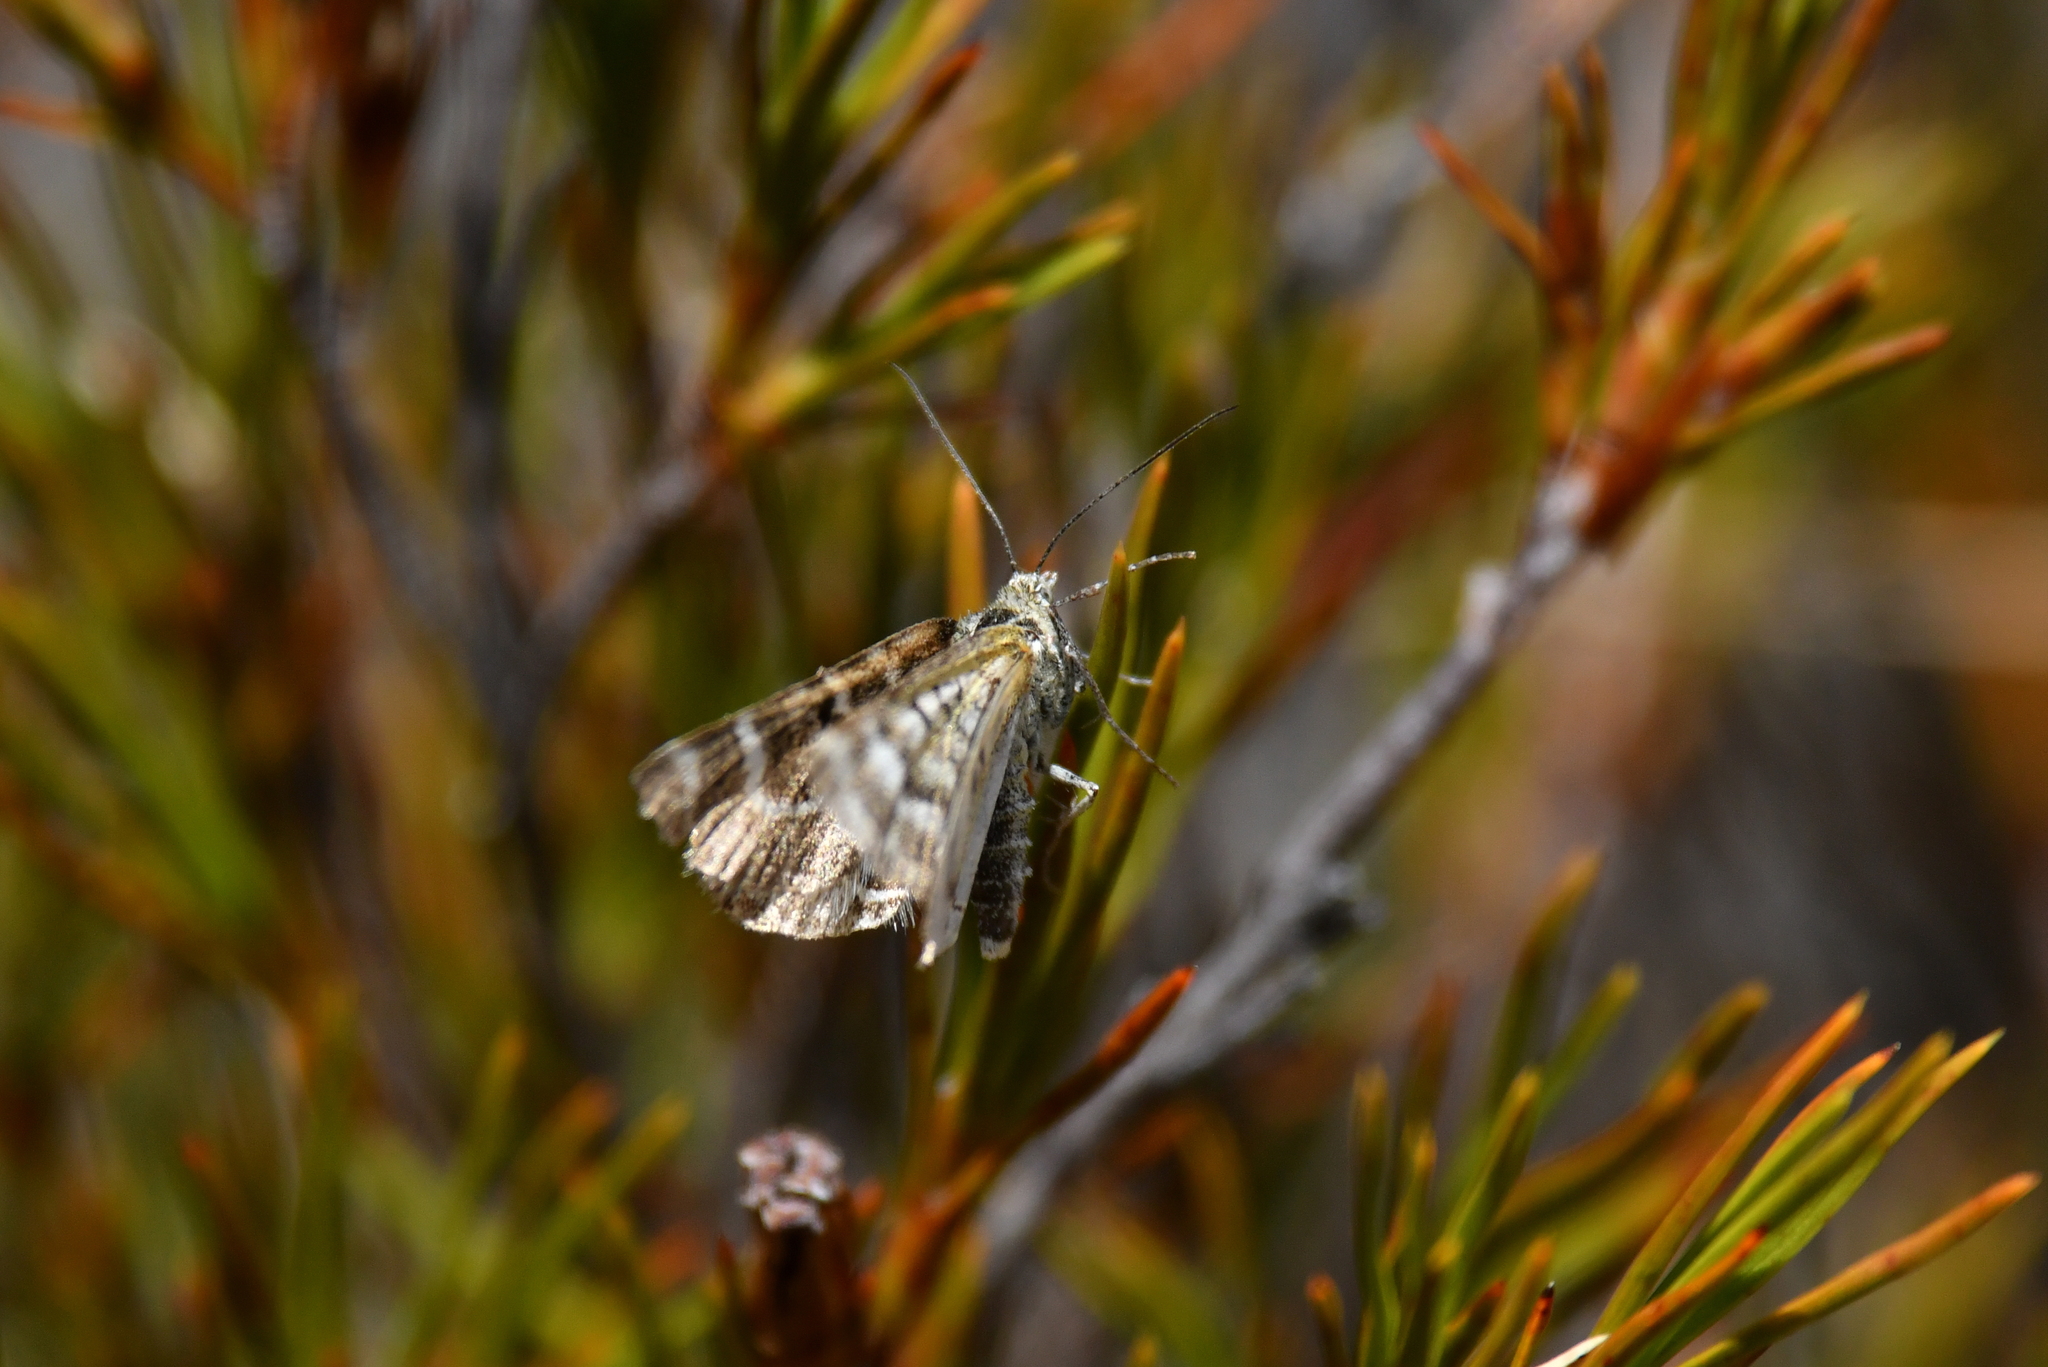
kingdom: Animalia
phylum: Arthropoda
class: Insecta
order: Lepidoptera
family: Geometridae
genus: Notoreas
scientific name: Notoreas paradelpha
